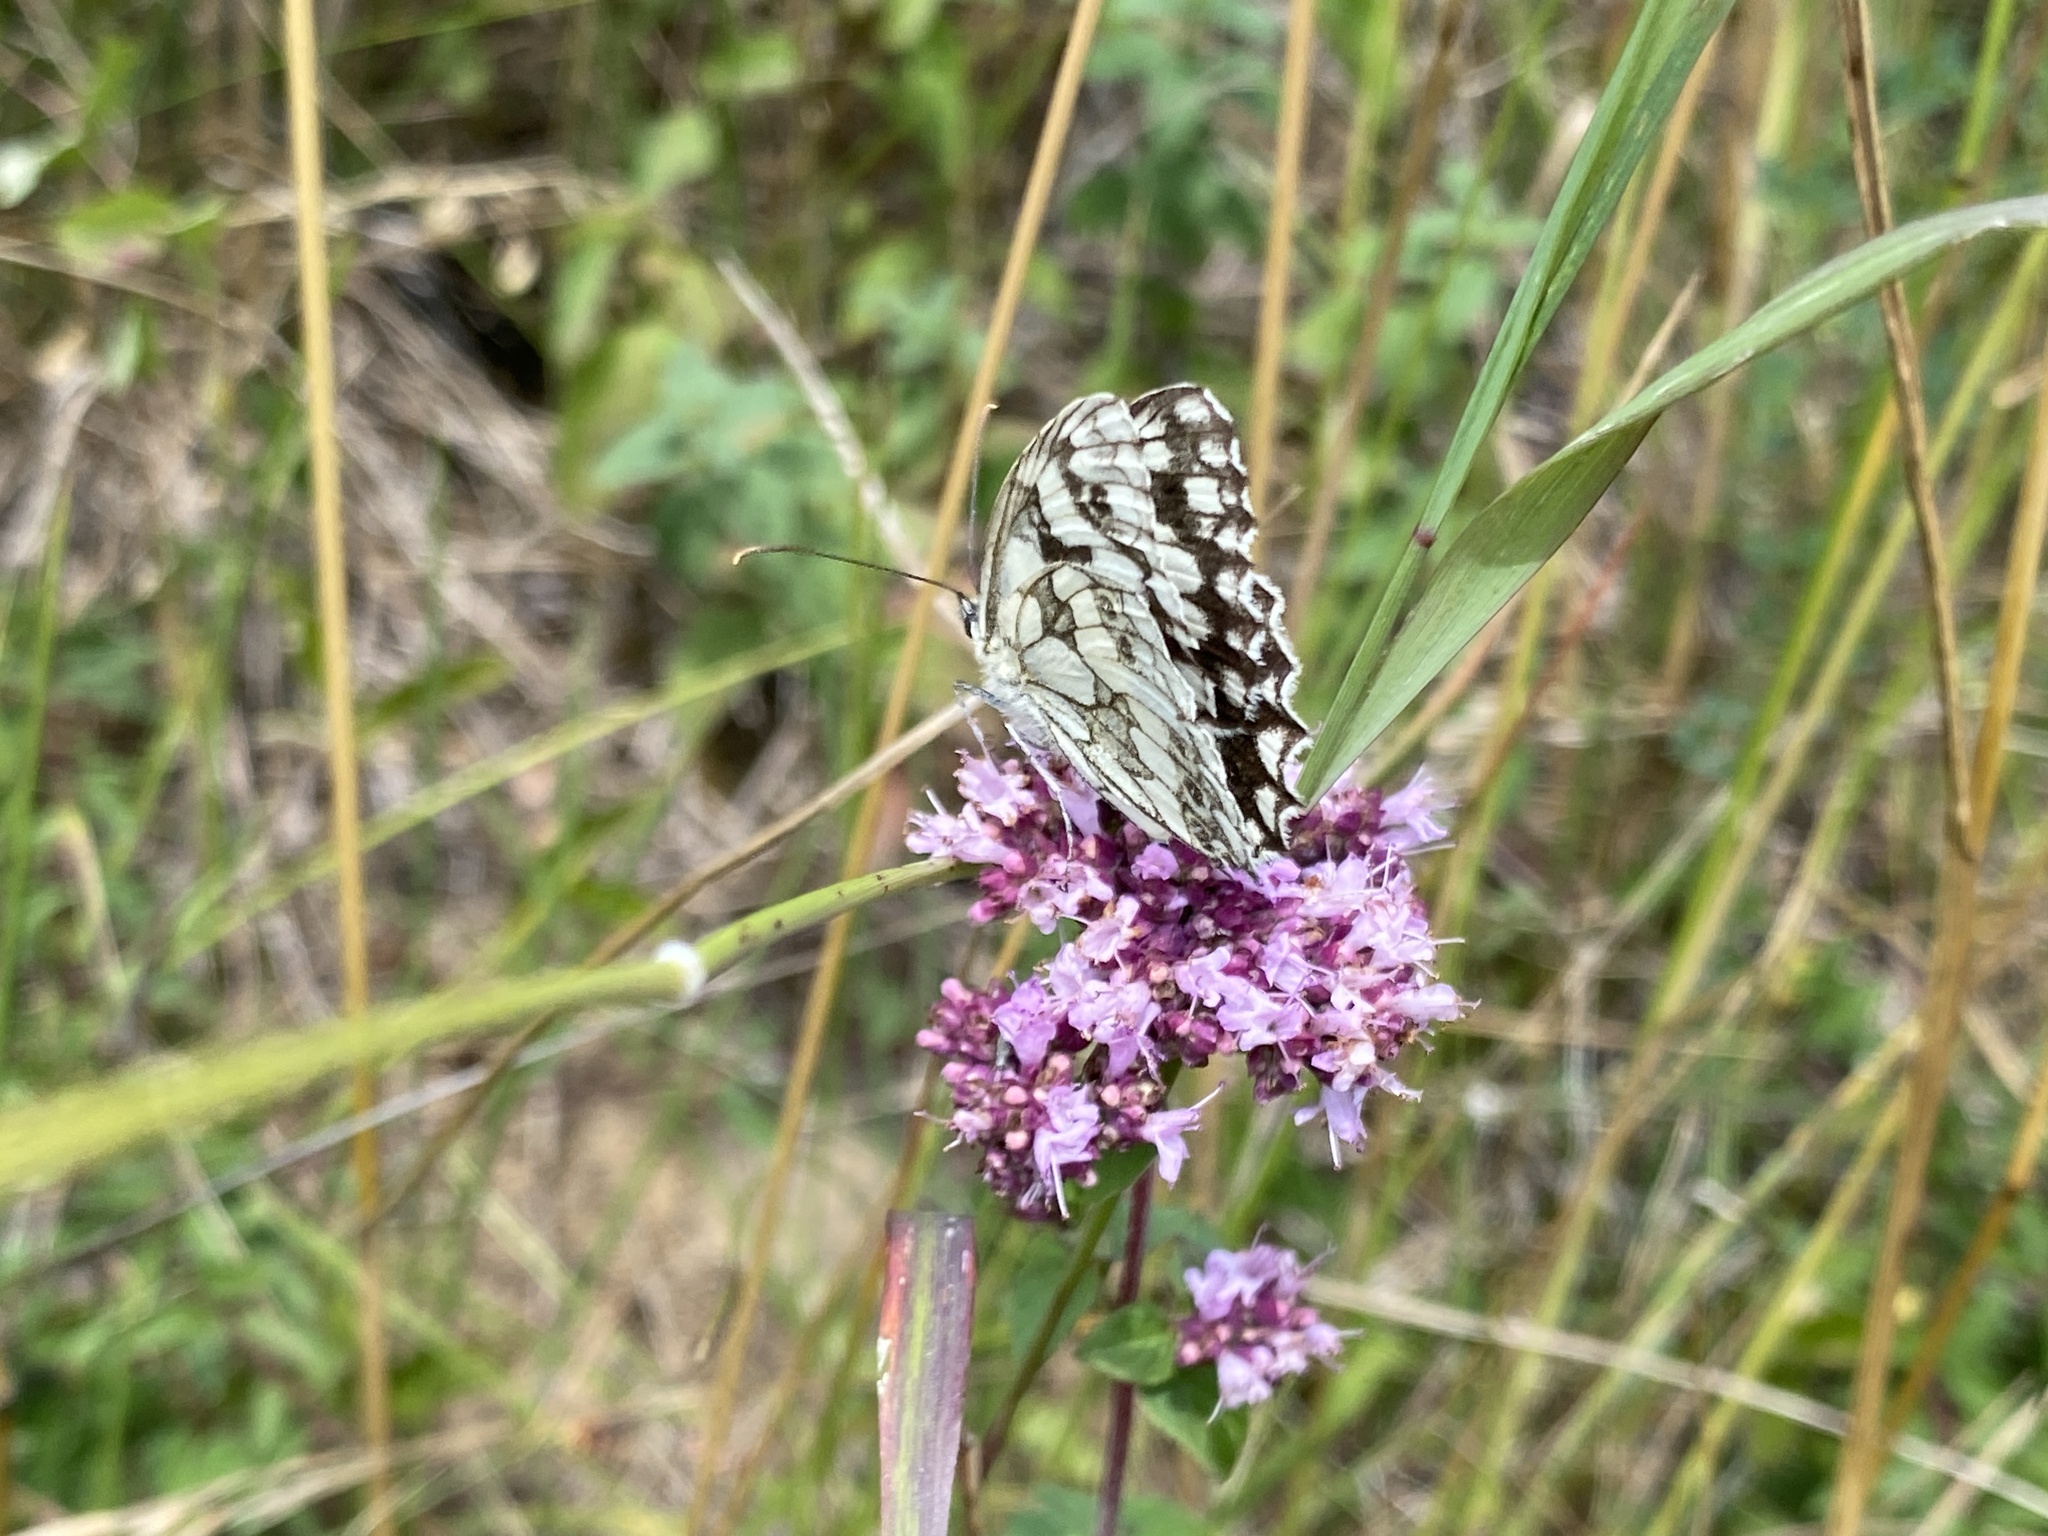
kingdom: Animalia
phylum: Arthropoda
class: Insecta
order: Lepidoptera
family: Nymphalidae
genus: Melanargia
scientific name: Melanargia galathea
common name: Marbled white
